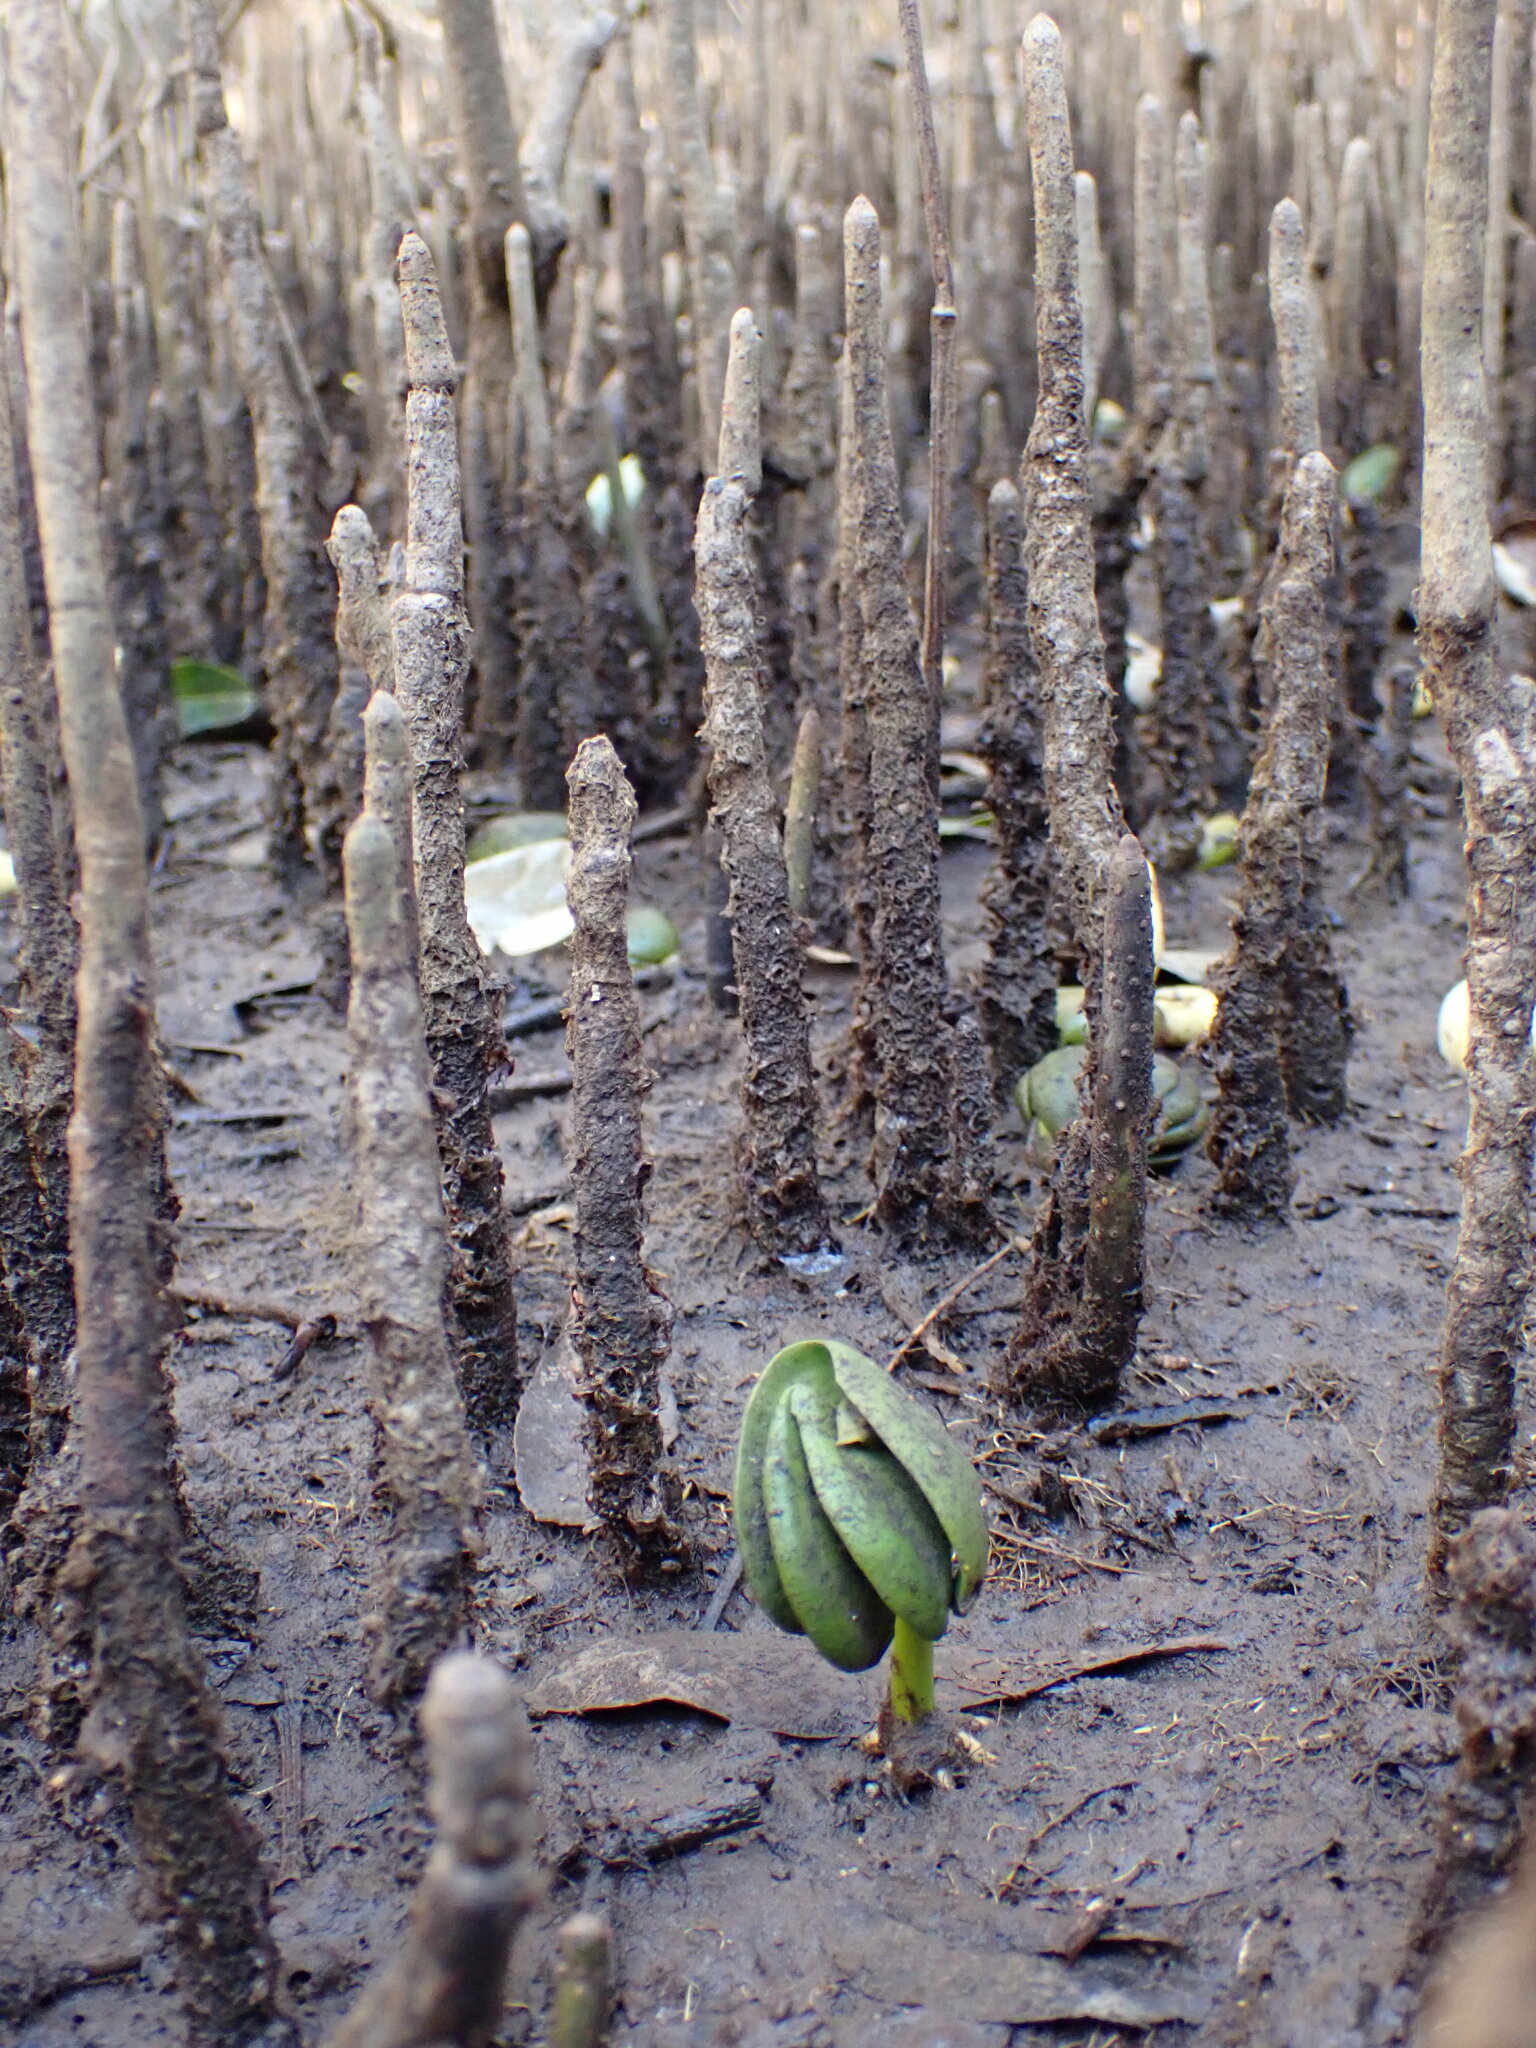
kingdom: Plantae
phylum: Tracheophyta
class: Magnoliopsida
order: Lamiales
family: Acanthaceae
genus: Avicennia
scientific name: Avicennia marina
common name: Gray mangrove
